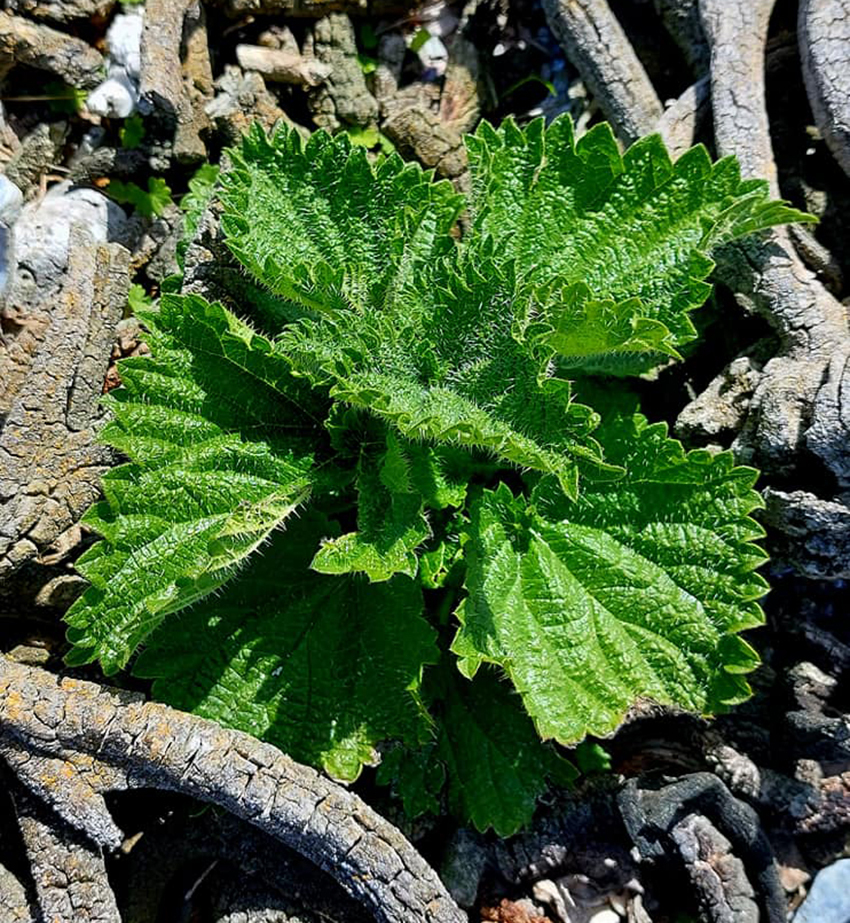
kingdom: Plantae
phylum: Tracheophyta
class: Magnoliopsida
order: Rosales
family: Urticaceae
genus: Urtica
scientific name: Urtica australis
